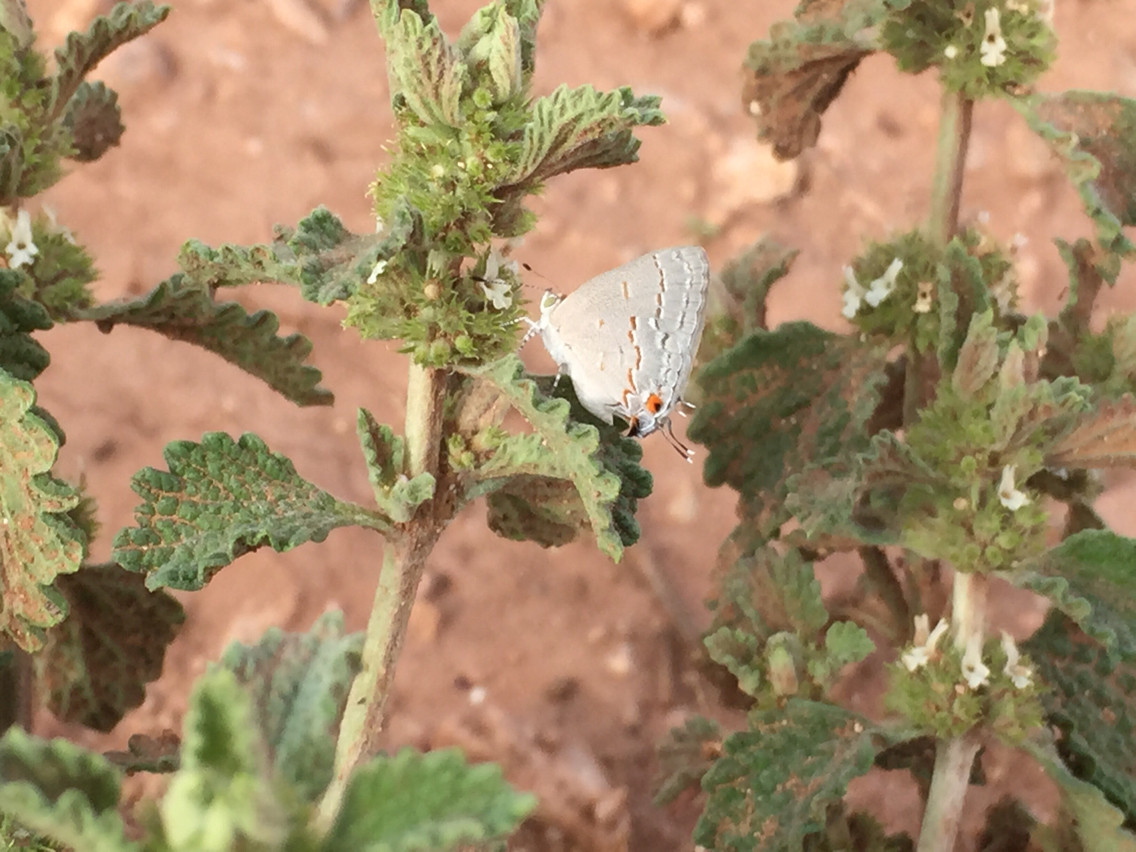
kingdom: Animalia
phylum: Arthropoda
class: Insecta
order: Lepidoptera
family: Lycaenidae
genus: Ministrymon
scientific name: Ministrymon leda
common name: Leda ministreak
